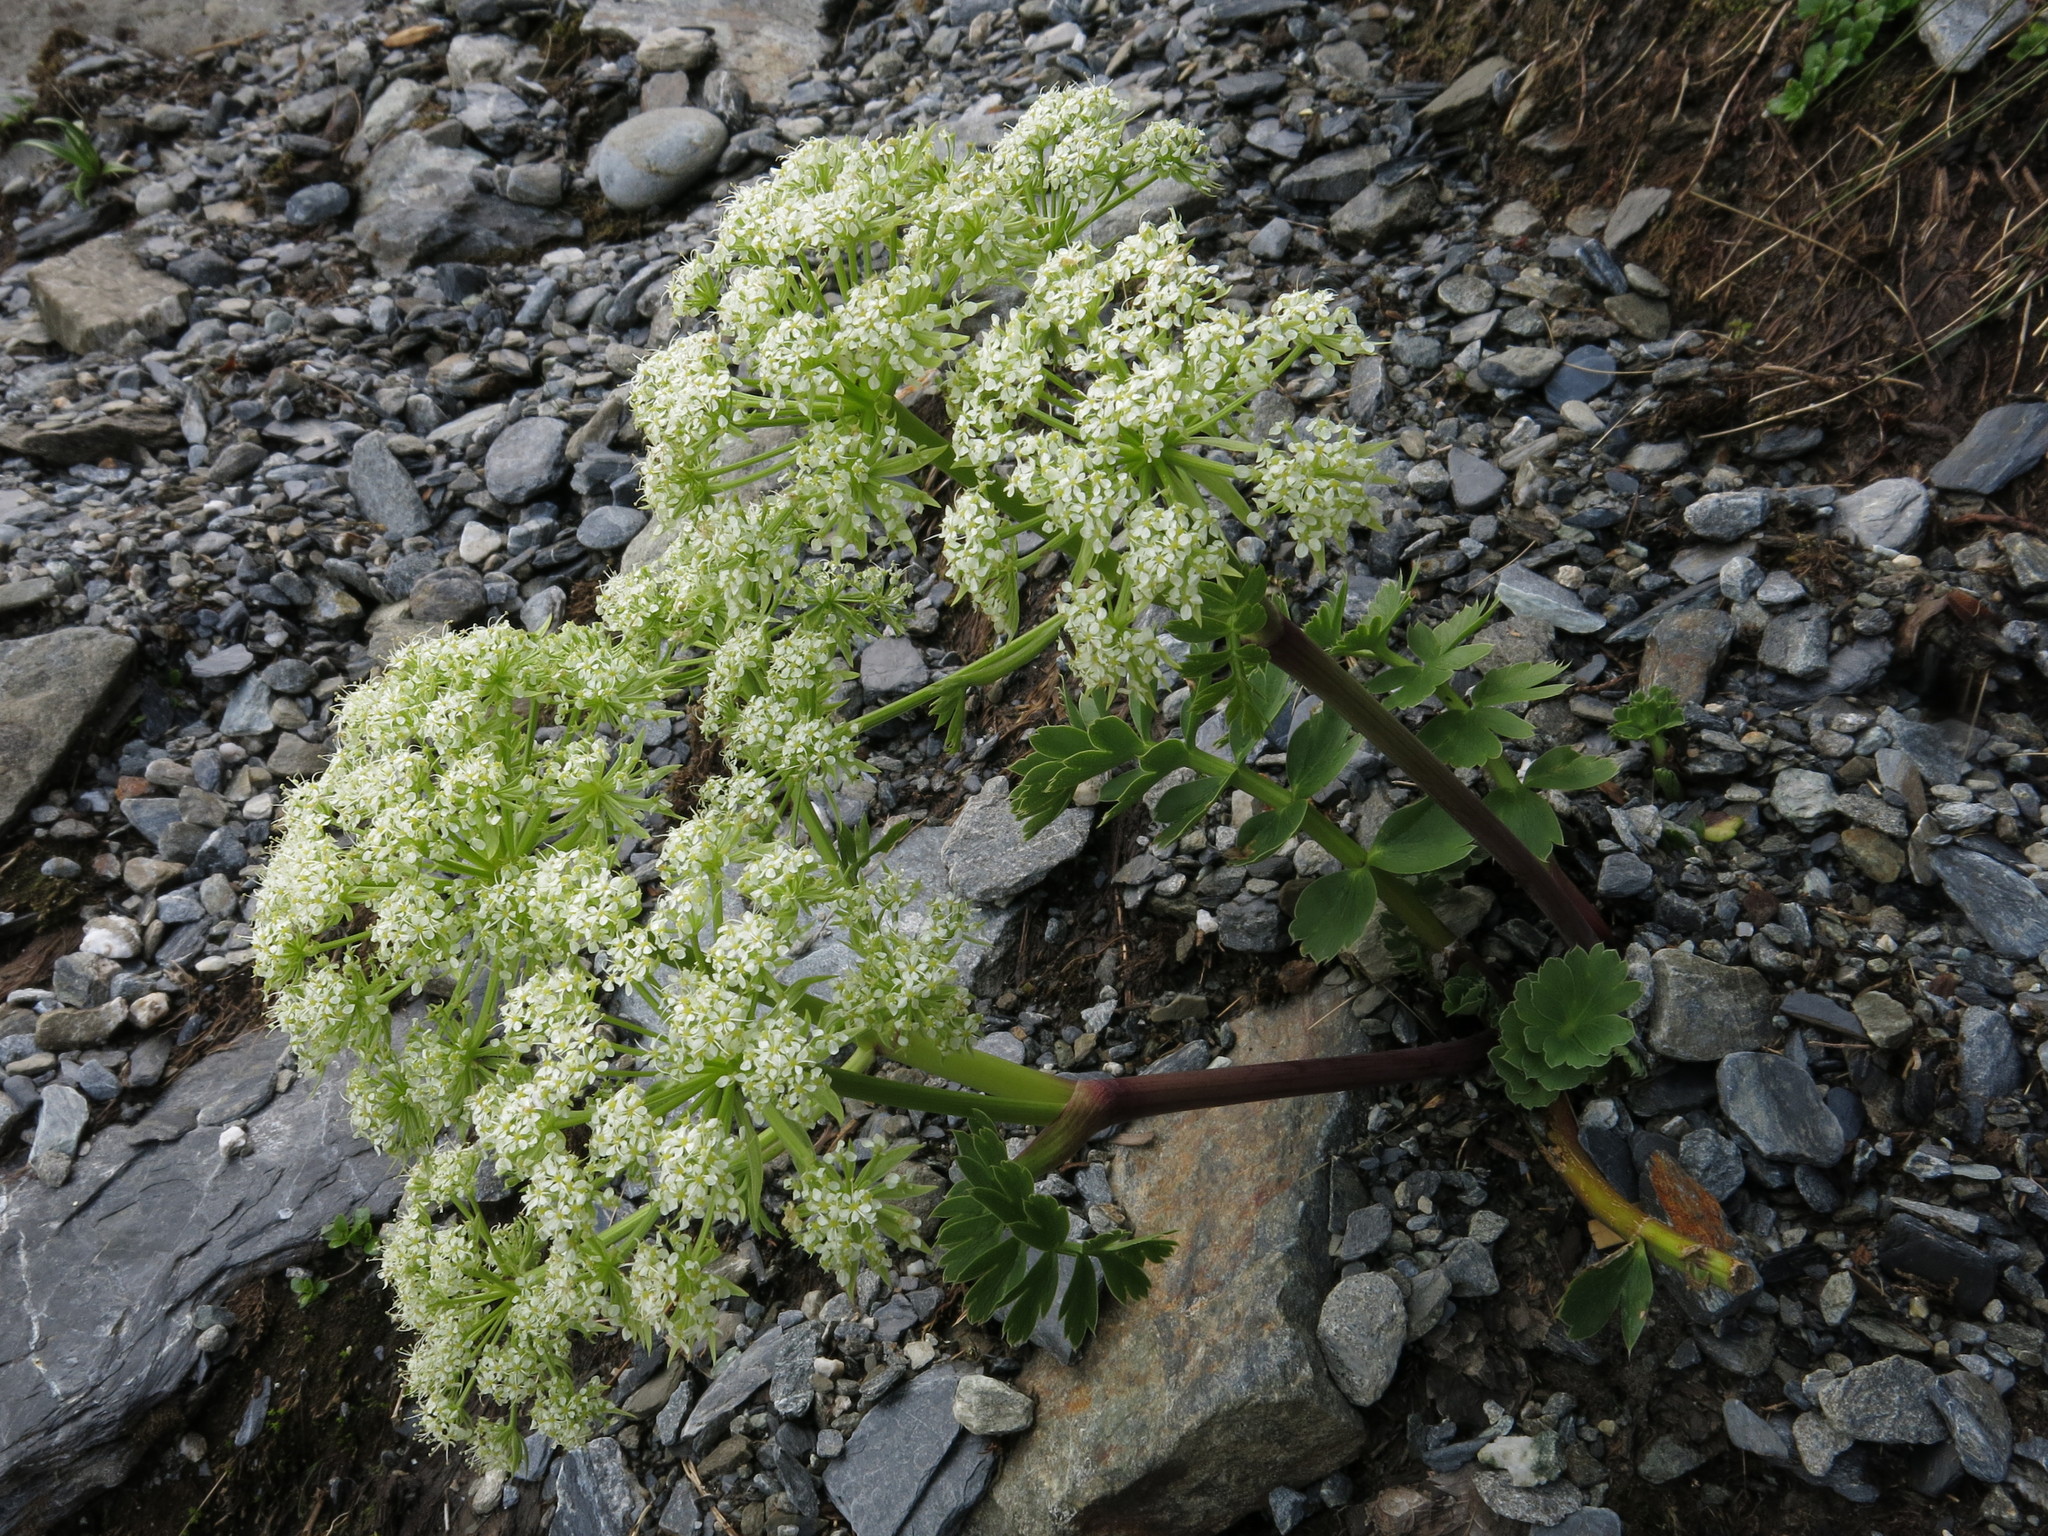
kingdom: Plantae
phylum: Tracheophyta
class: Magnoliopsida
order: Apiales
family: Apiaceae
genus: Anisotome
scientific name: Anisotome pilifera
